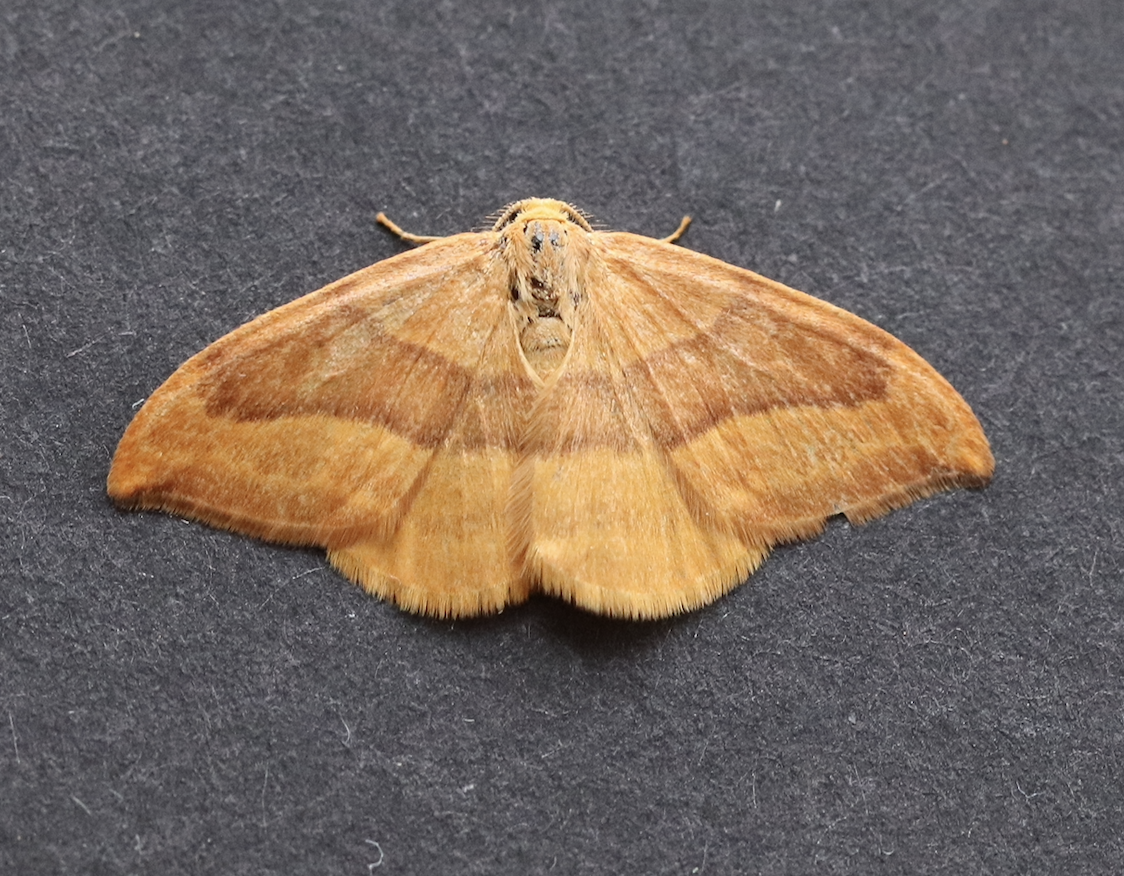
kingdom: Animalia
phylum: Arthropoda
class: Insecta
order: Lepidoptera
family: Drepanidae
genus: Watsonalla
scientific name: Watsonalla cultraria
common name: Barred hook-tip
